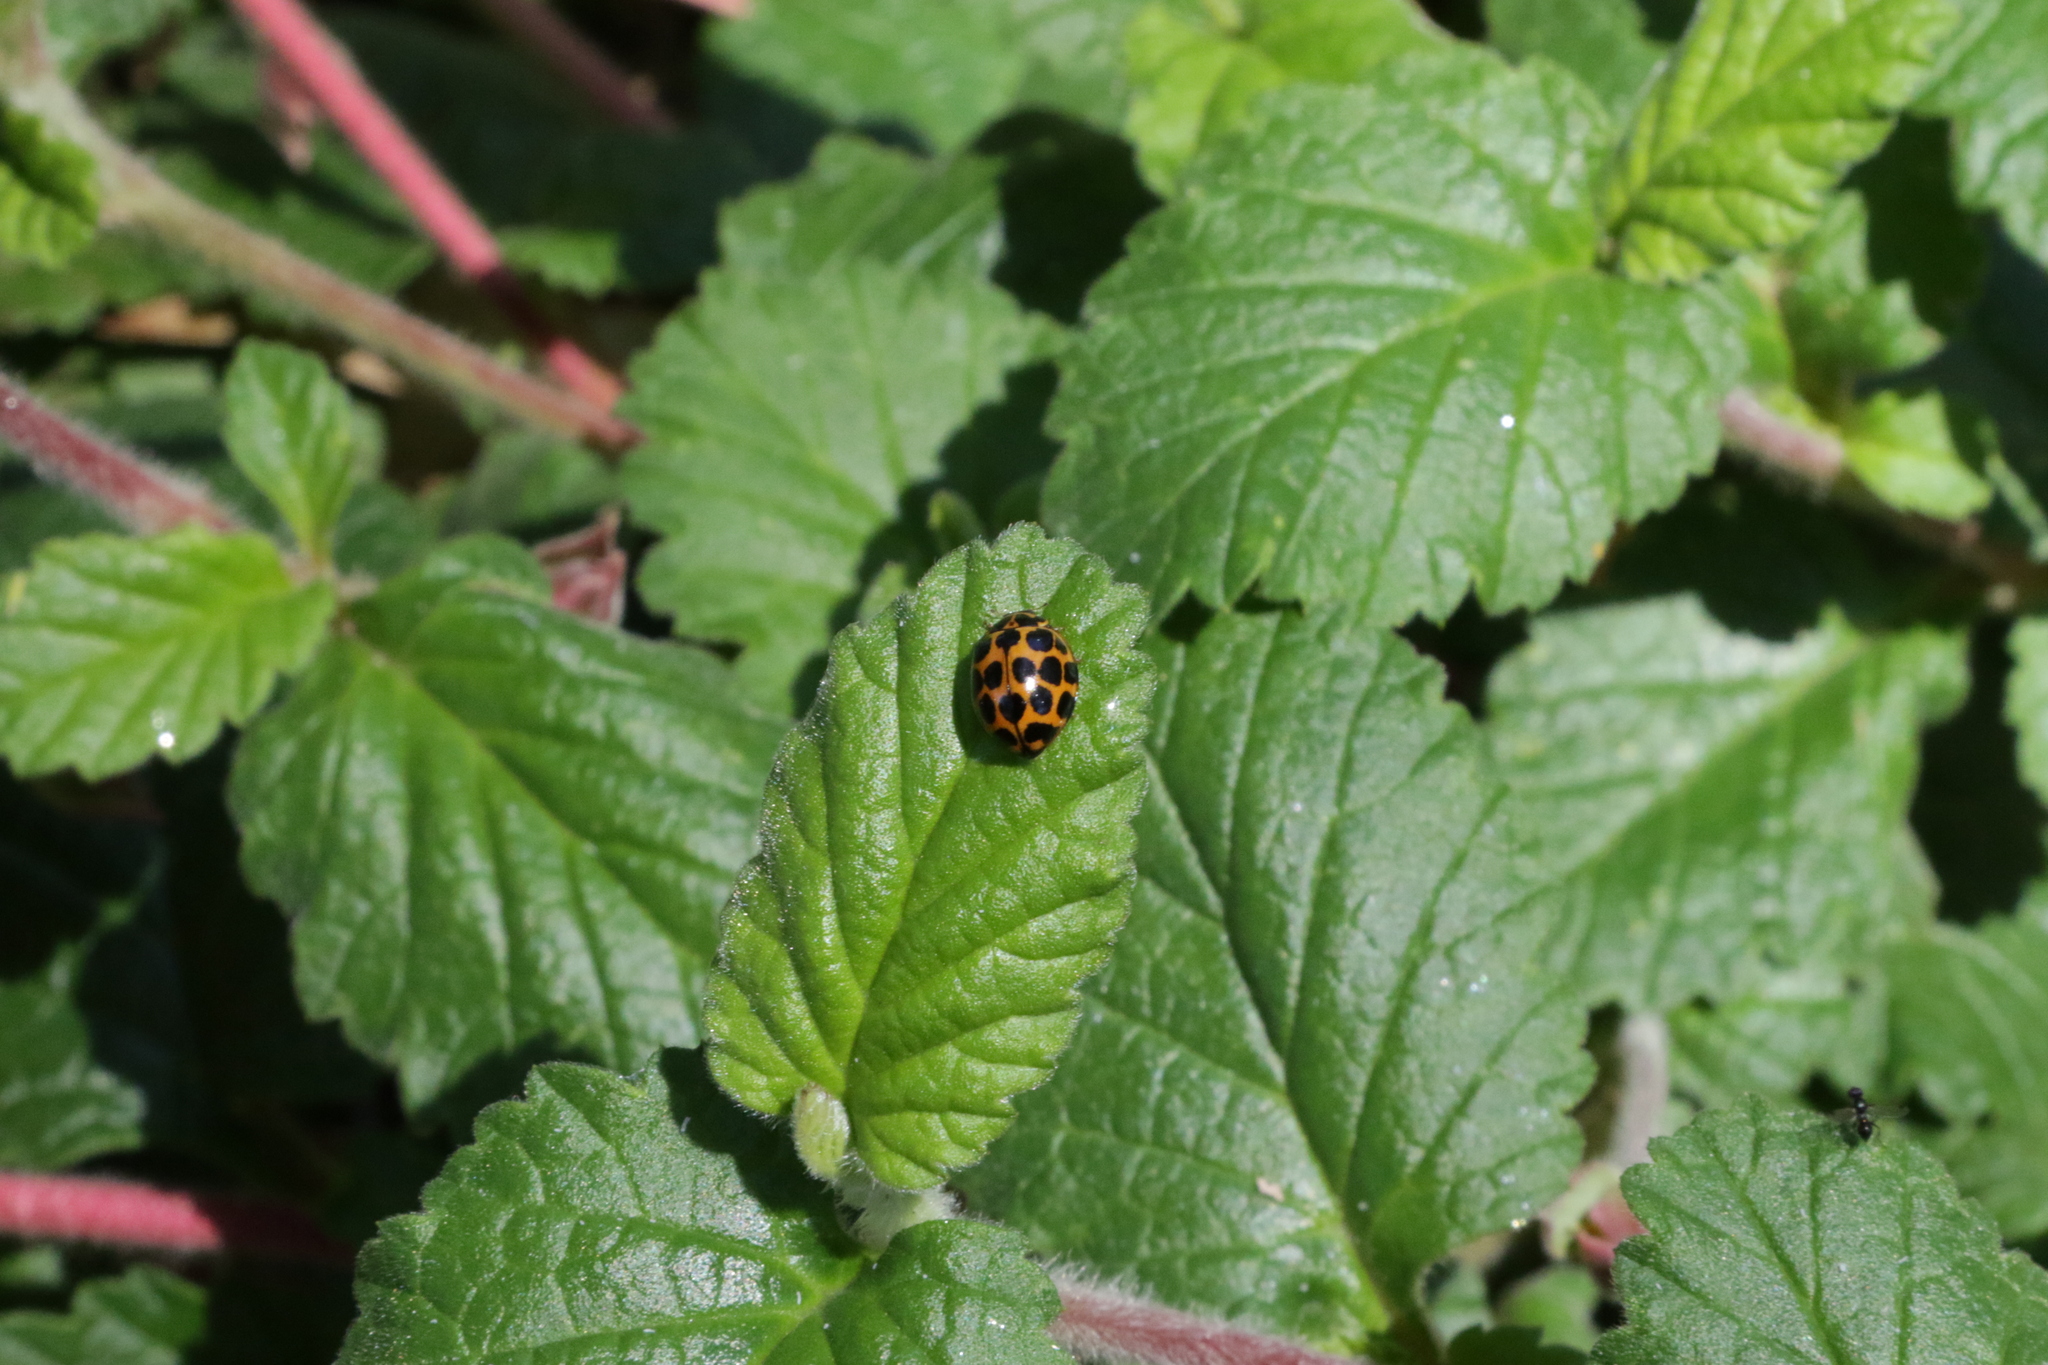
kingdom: Animalia
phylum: Arthropoda
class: Insecta
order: Coleoptera
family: Coccinellidae
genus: Harmonia
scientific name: Harmonia conformis
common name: Common spotted ladybird beetle
